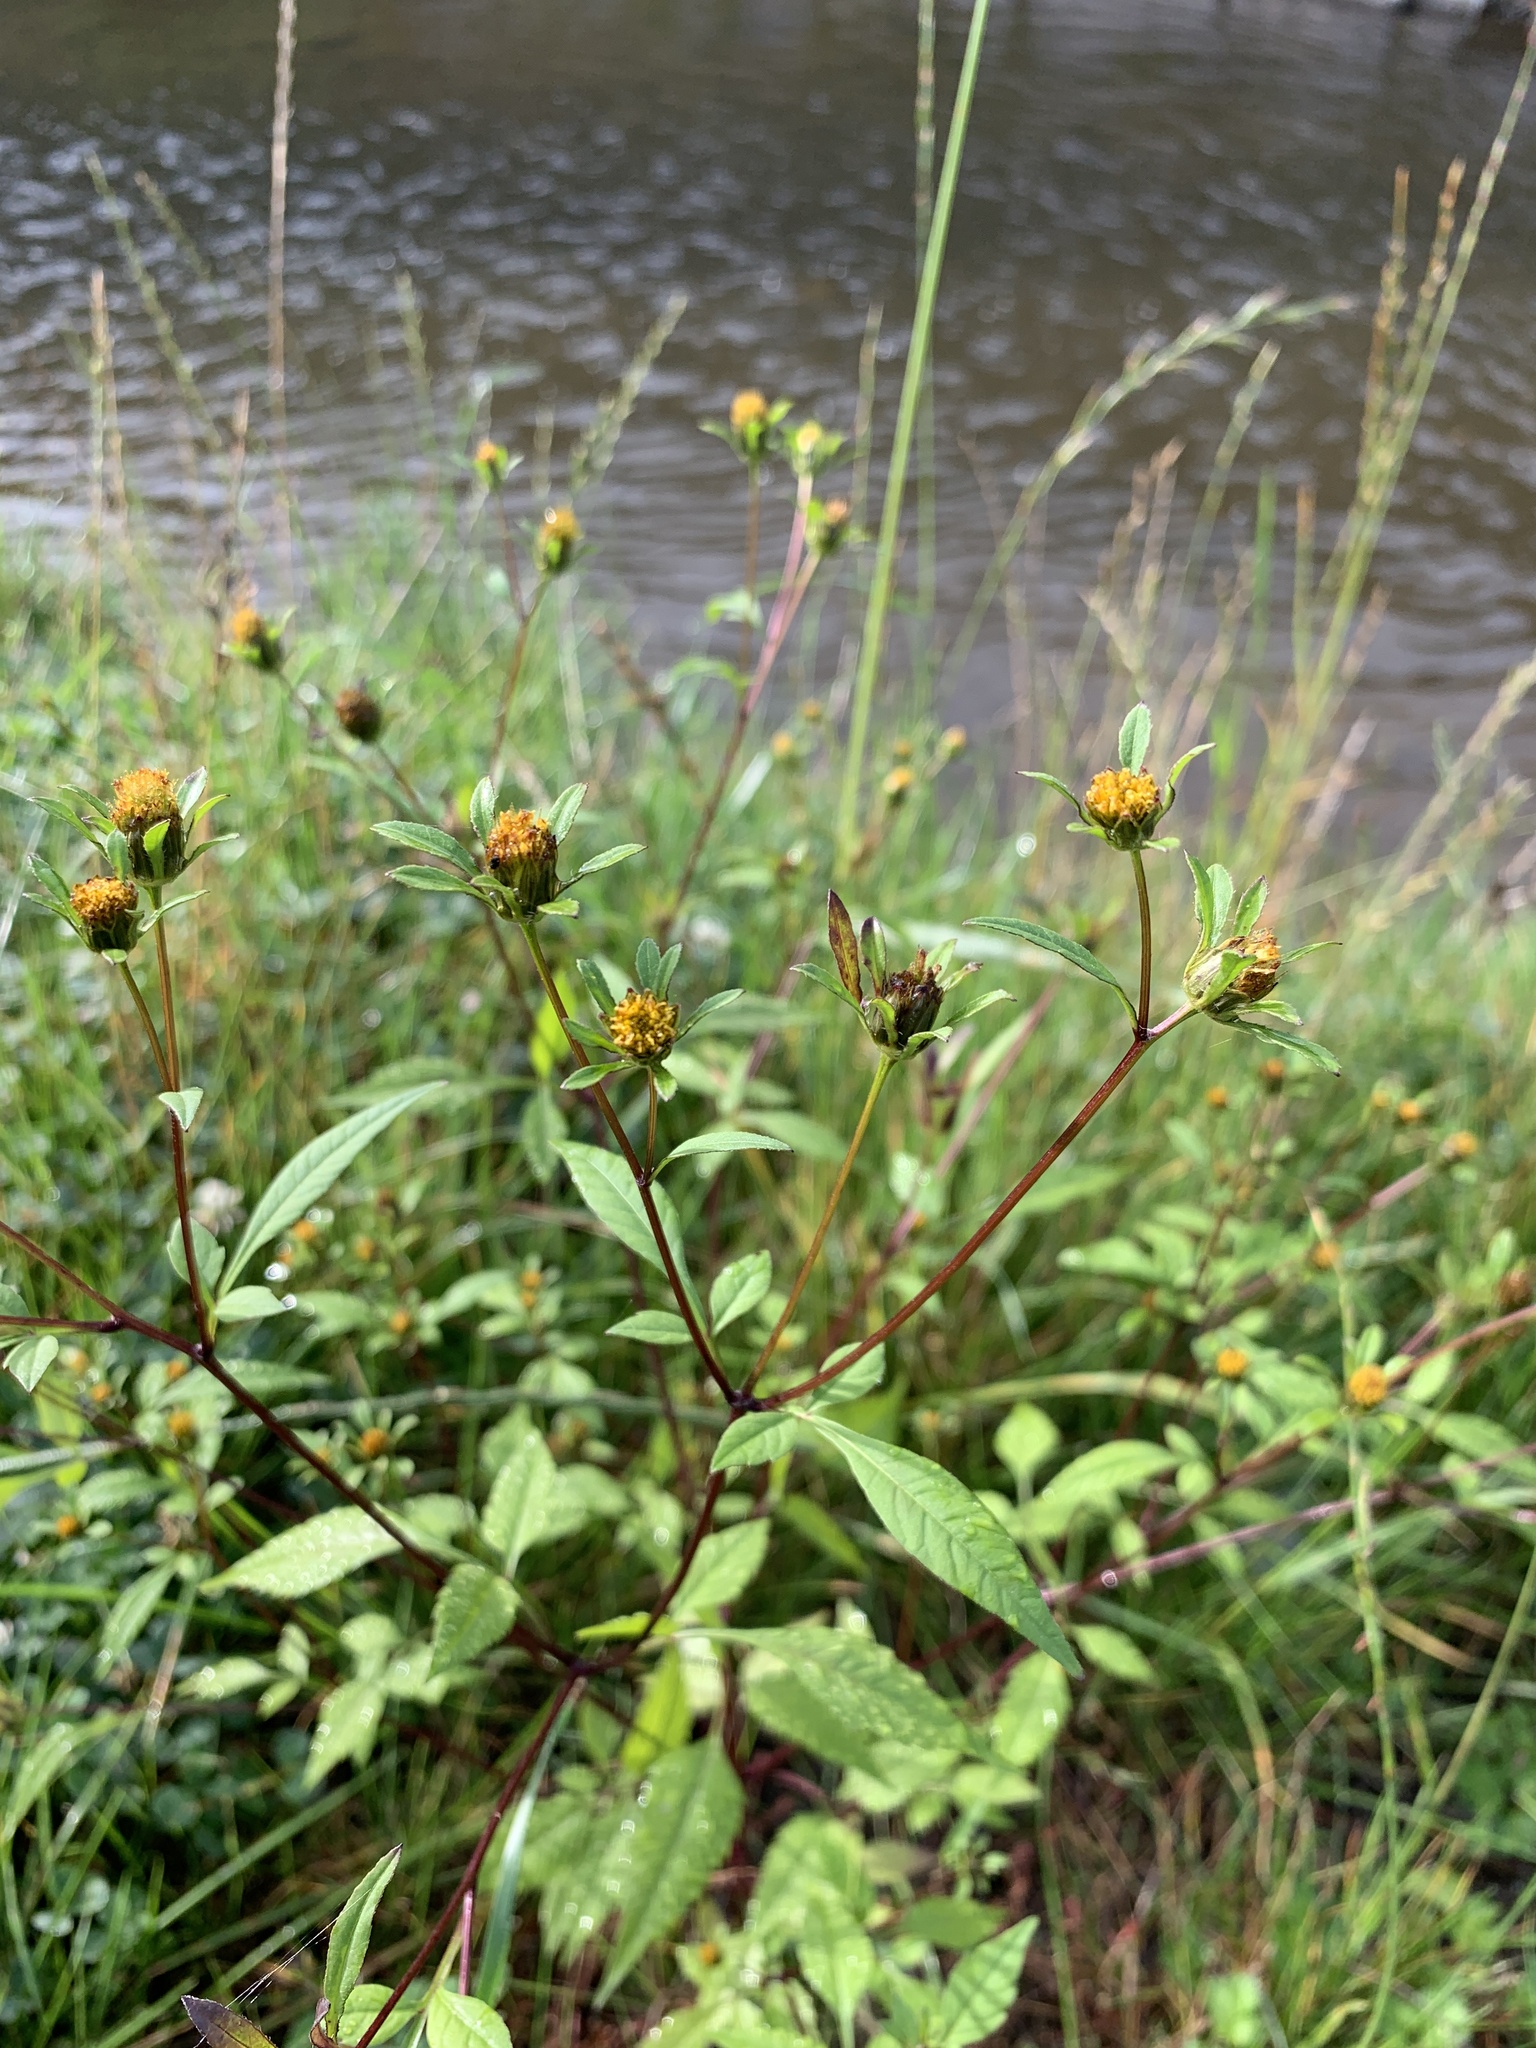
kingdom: Plantae
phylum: Tracheophyta
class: Magnoliopsida
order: Asterales
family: Asteraceae
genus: Bidens
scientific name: Bidens frondosa
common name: Beggarticks
